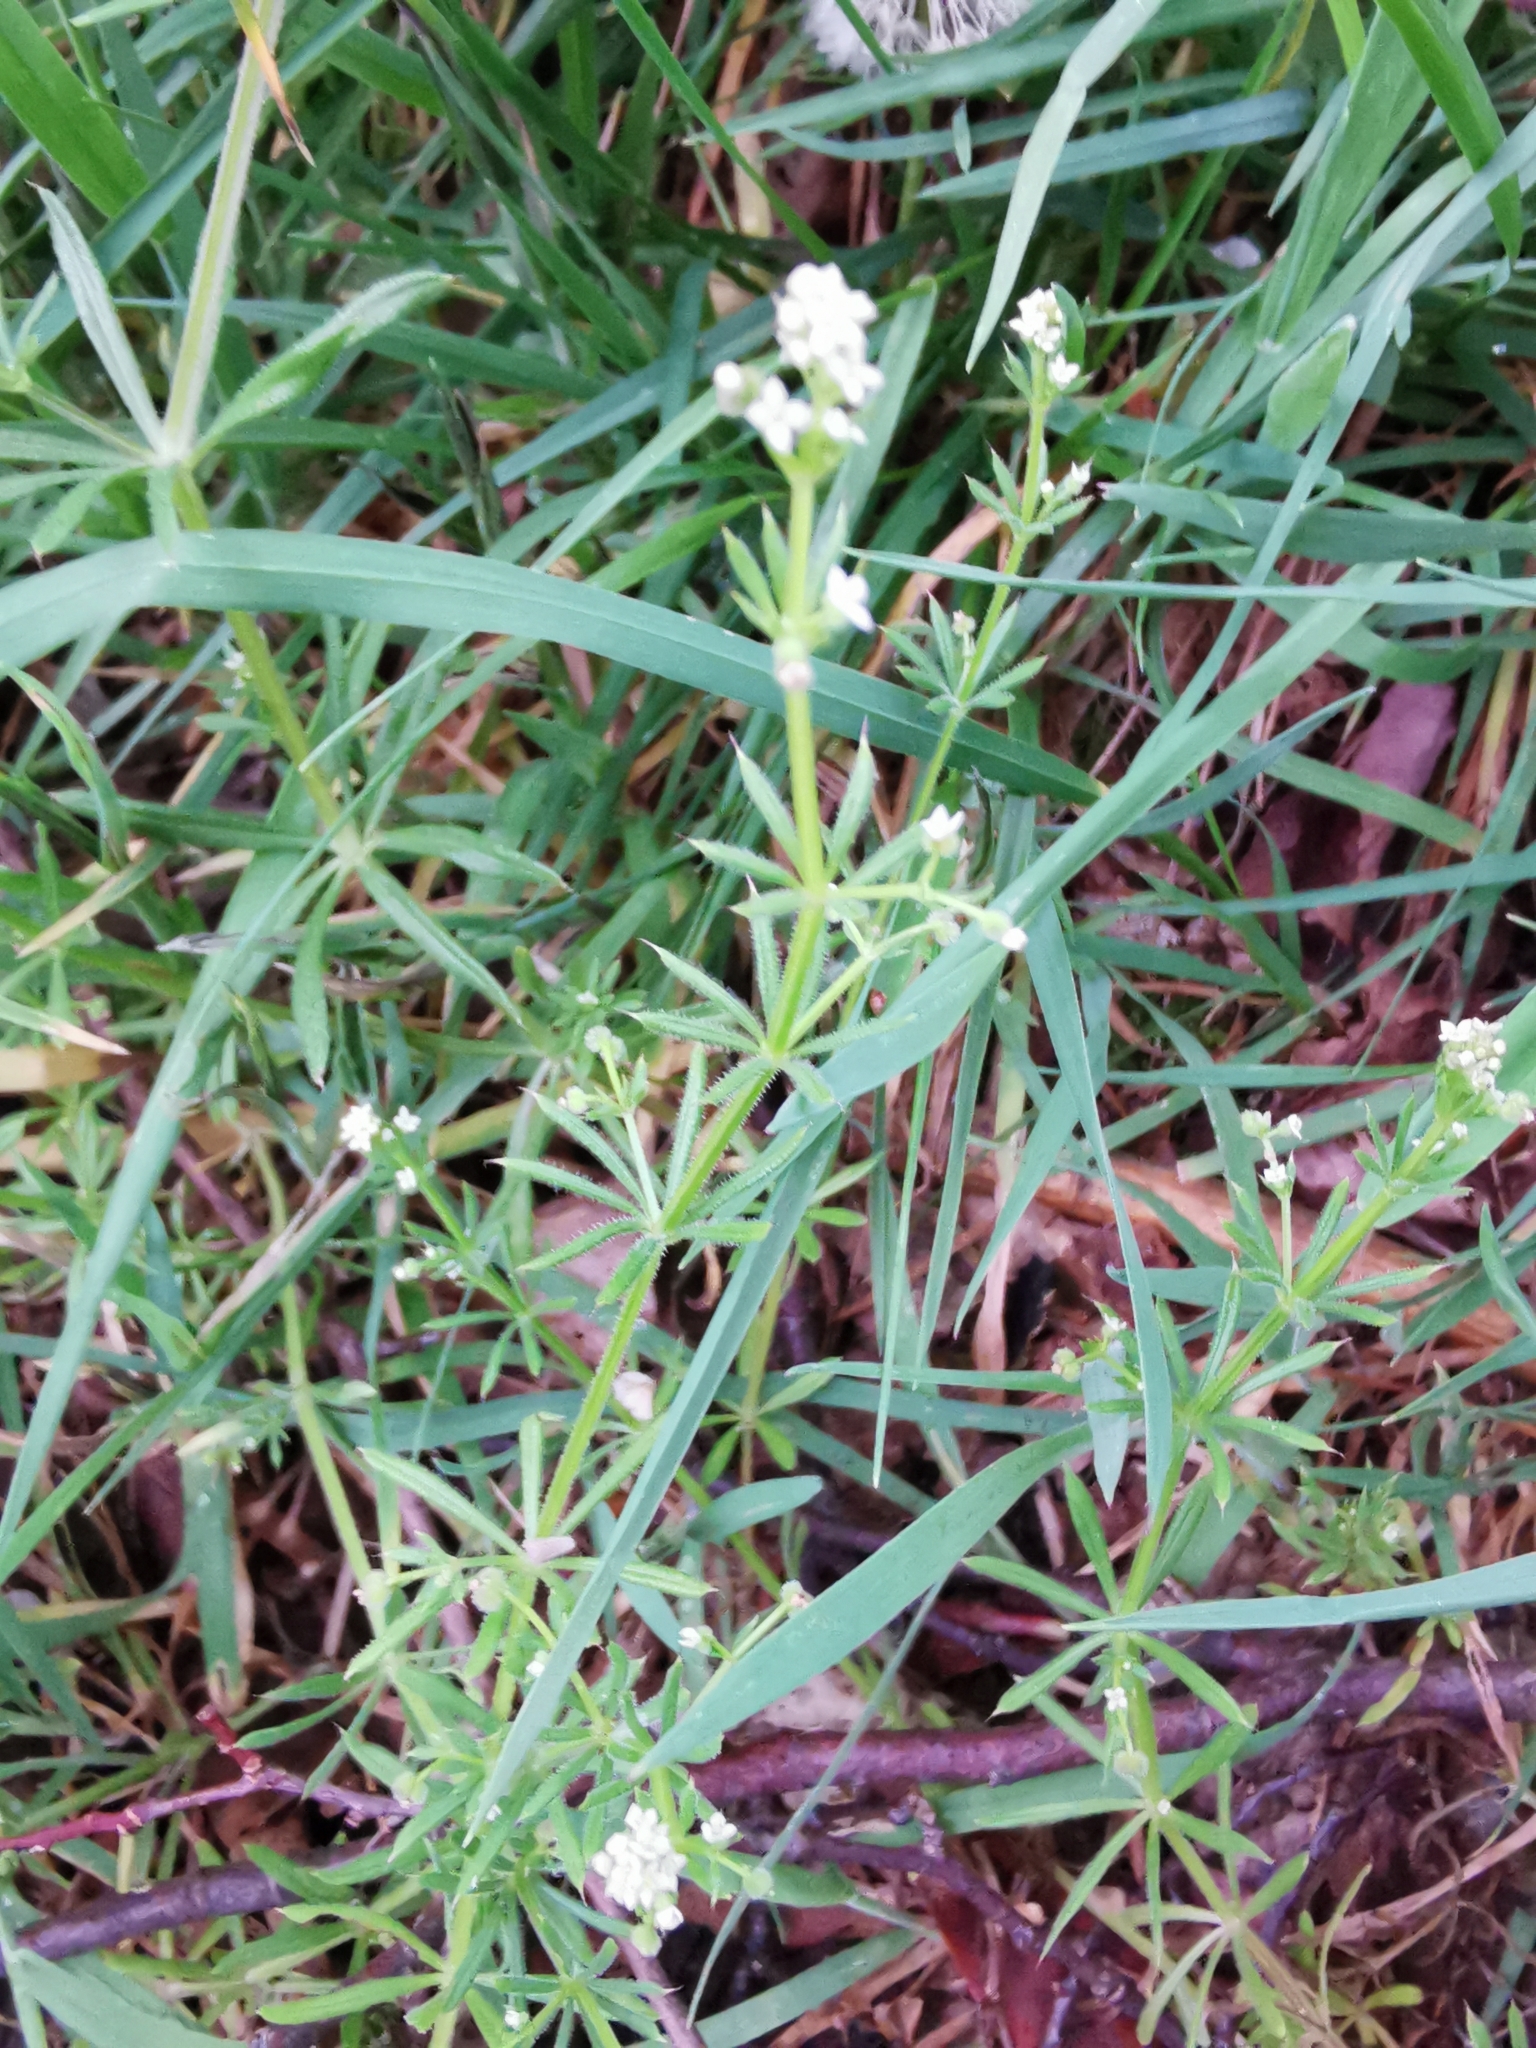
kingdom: Plantae
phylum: Tracheophyta
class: Magnoliopsida
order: Gentianales
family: Rubiaceae
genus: Galium
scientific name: Galium aparine
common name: Cleavers
